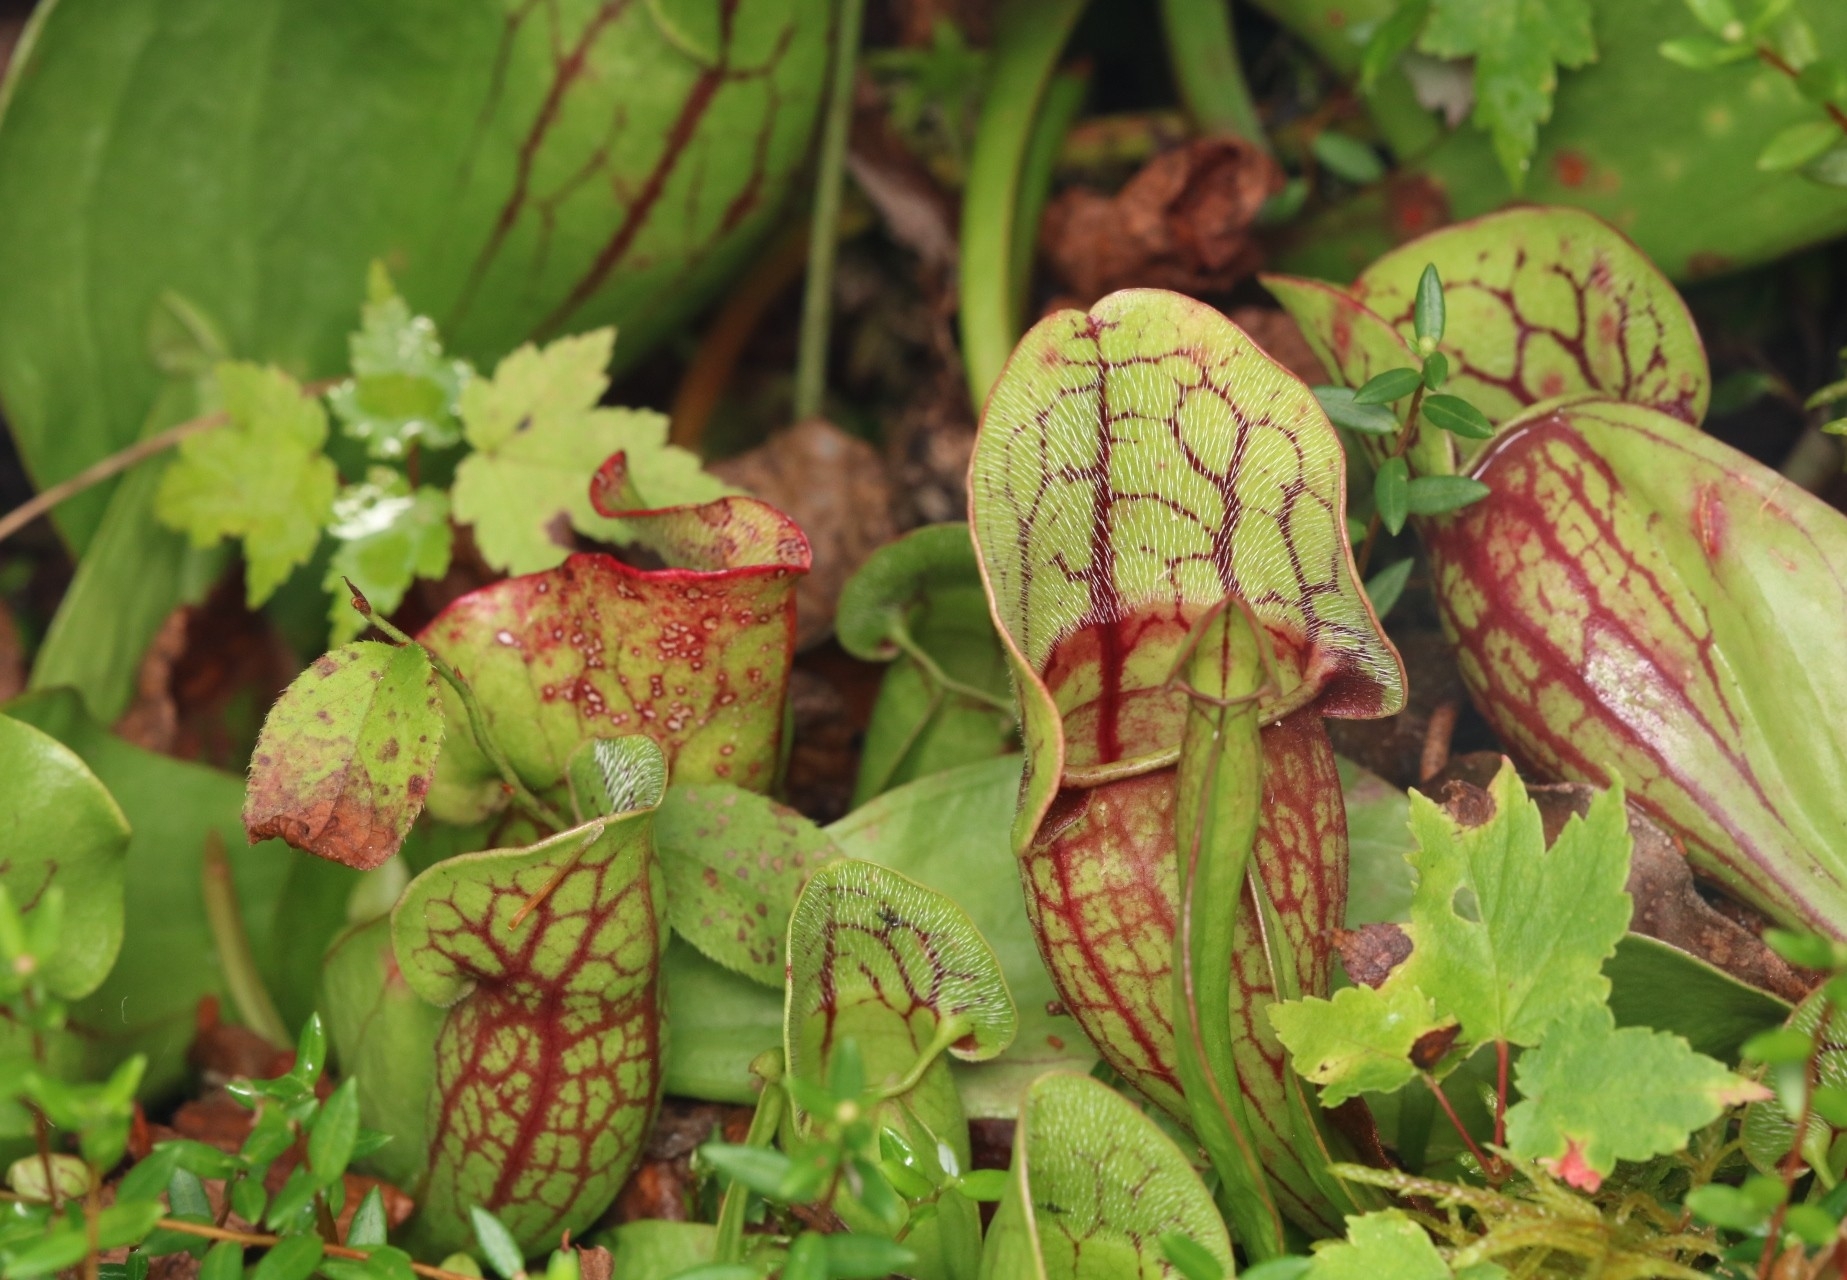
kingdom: Plantae
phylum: Tracheophyta
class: Magnoliopsida
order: Ericales
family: Sarraceniaceae
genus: Sarracenia
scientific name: Sarracenia purpurea
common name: Pitcherplant
